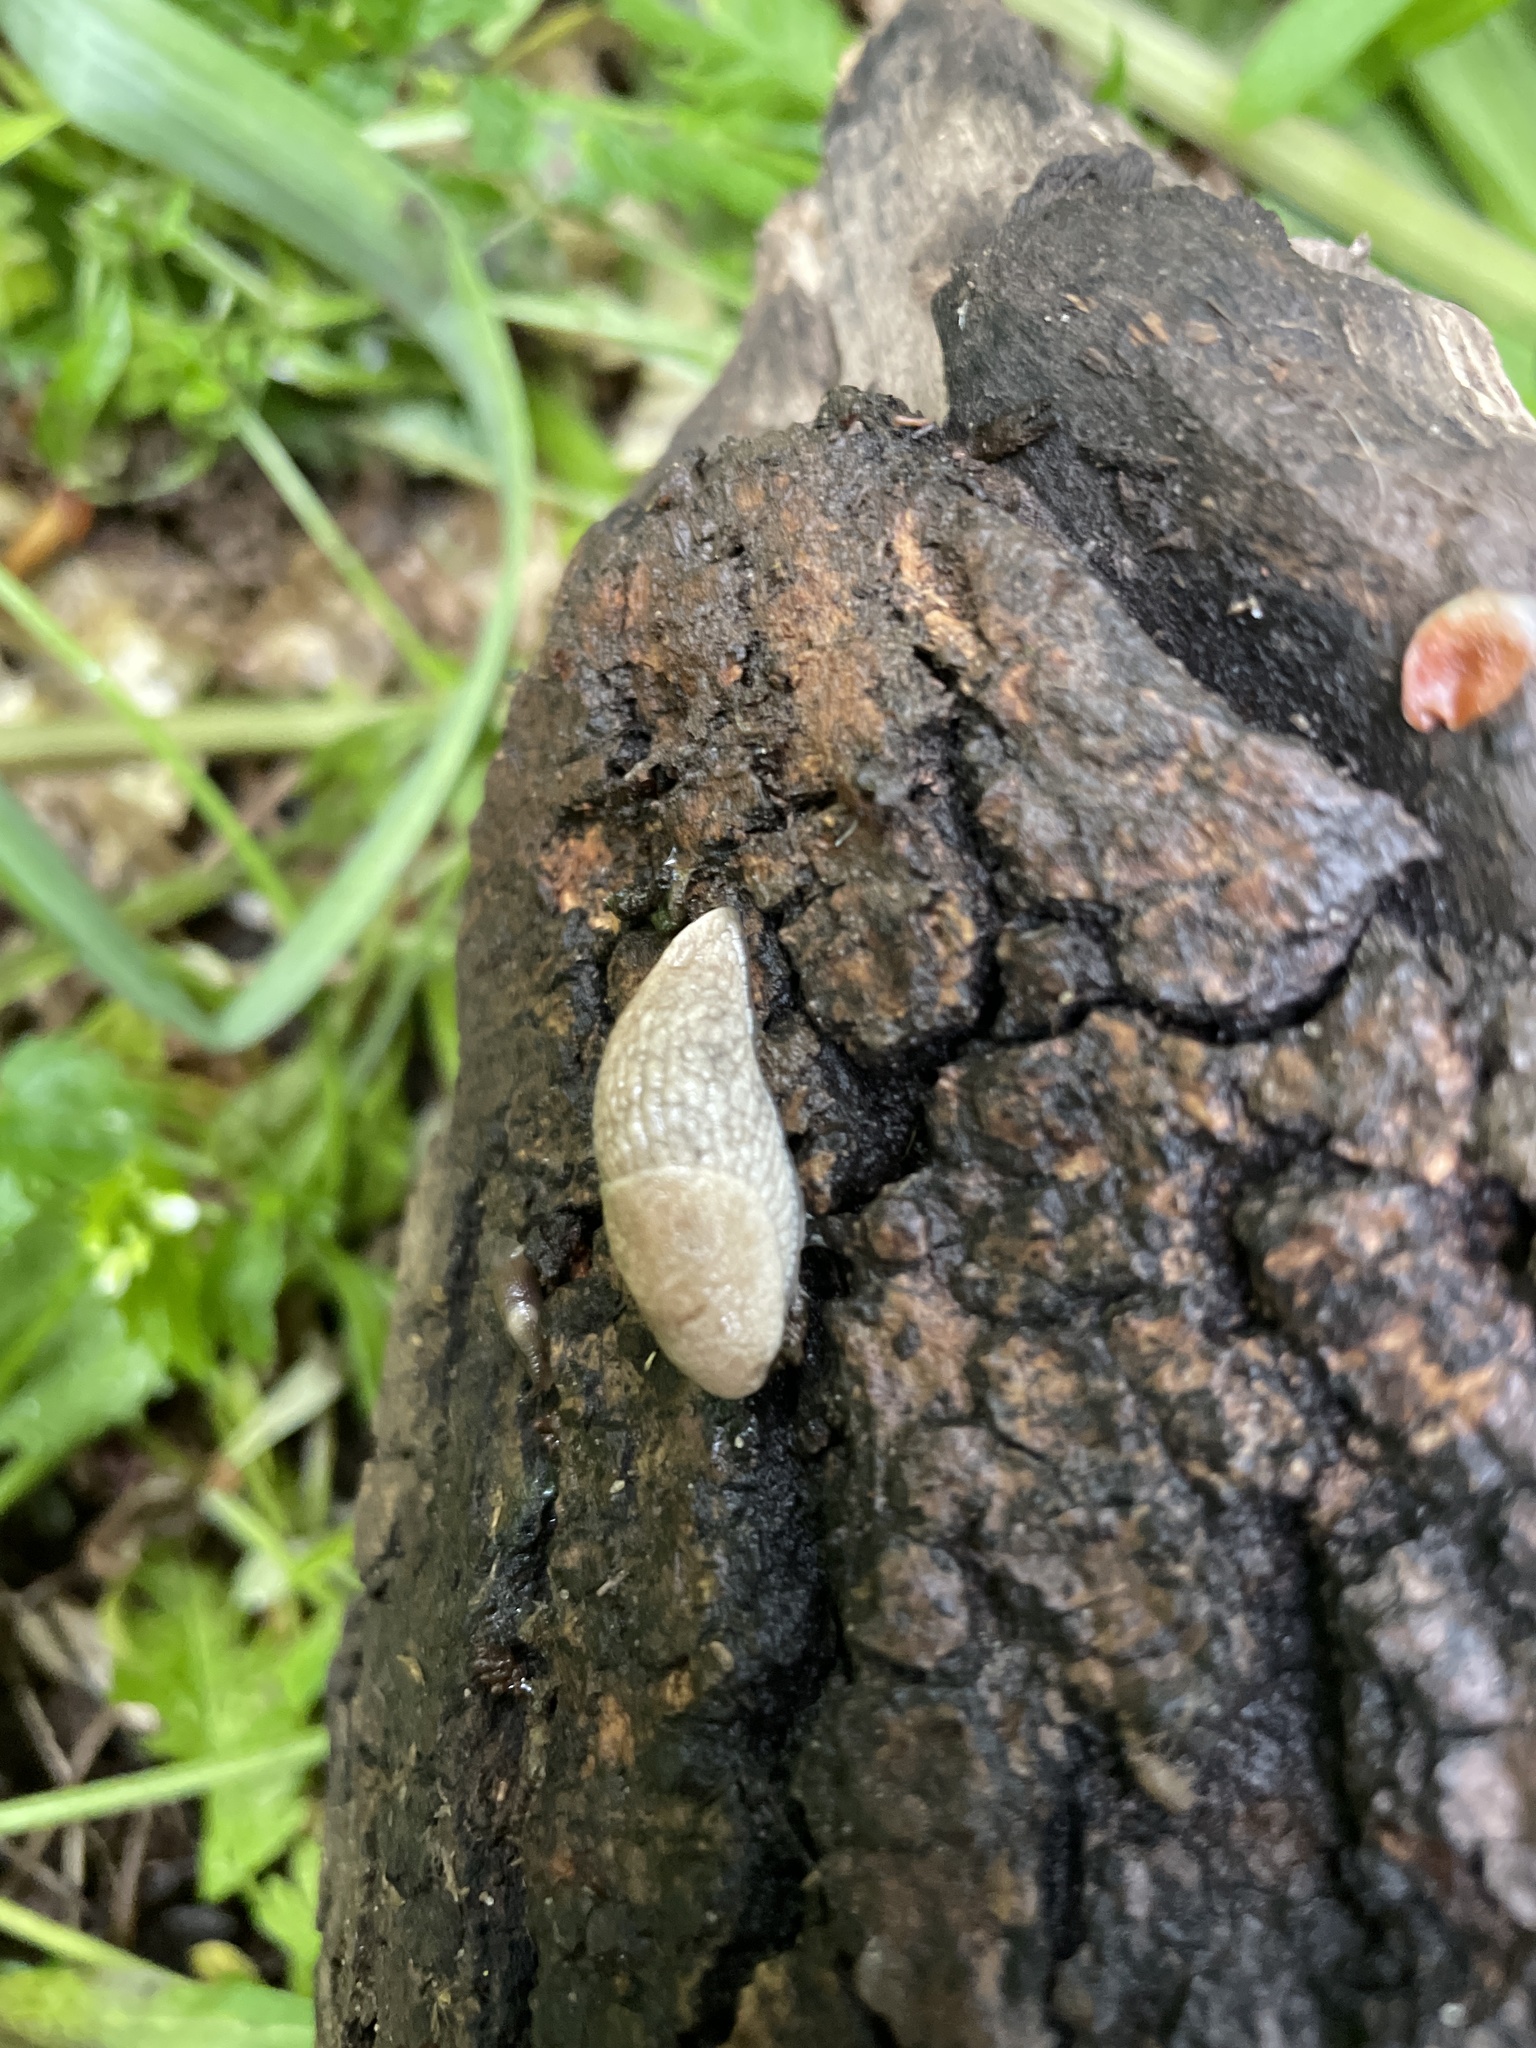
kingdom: Animalia
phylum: Mollusca
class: Gastropoda
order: Stylommatophora
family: Agriolimacidae
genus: Deroceras
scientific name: Deroceras reticulatum
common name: Gray field slug
